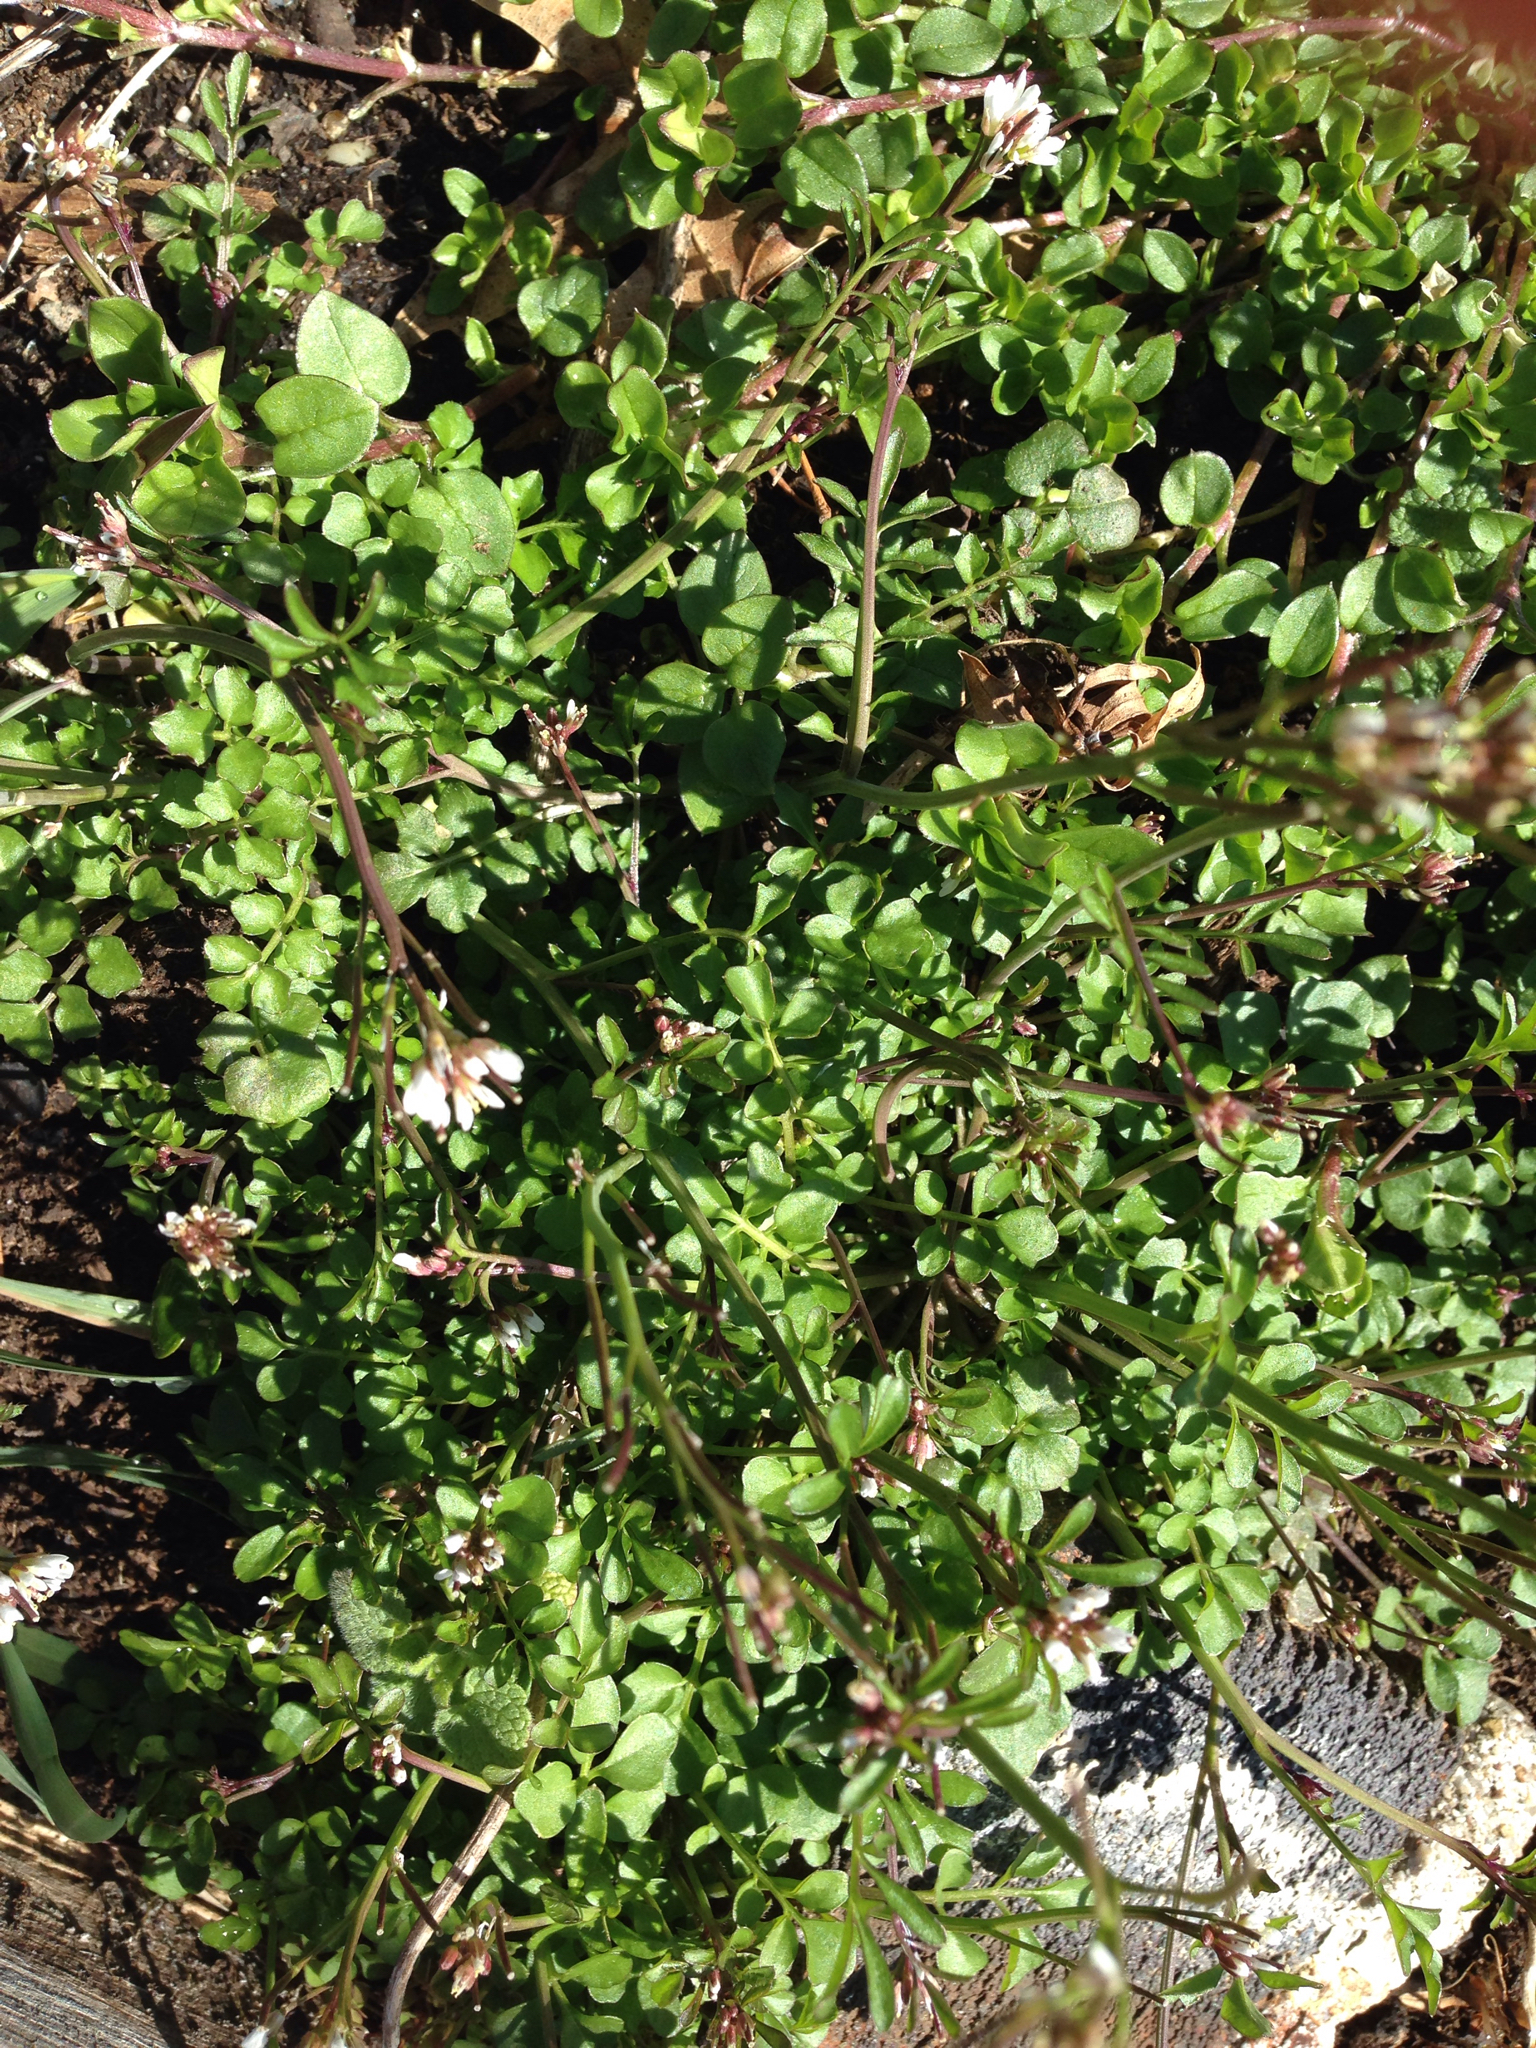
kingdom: Plantae
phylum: Tracheophyta
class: Magnoliopsida
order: Brassicales
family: Brassicaceae
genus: Cardamine
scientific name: Cardamine hirsuta
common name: Hairy bittercress
